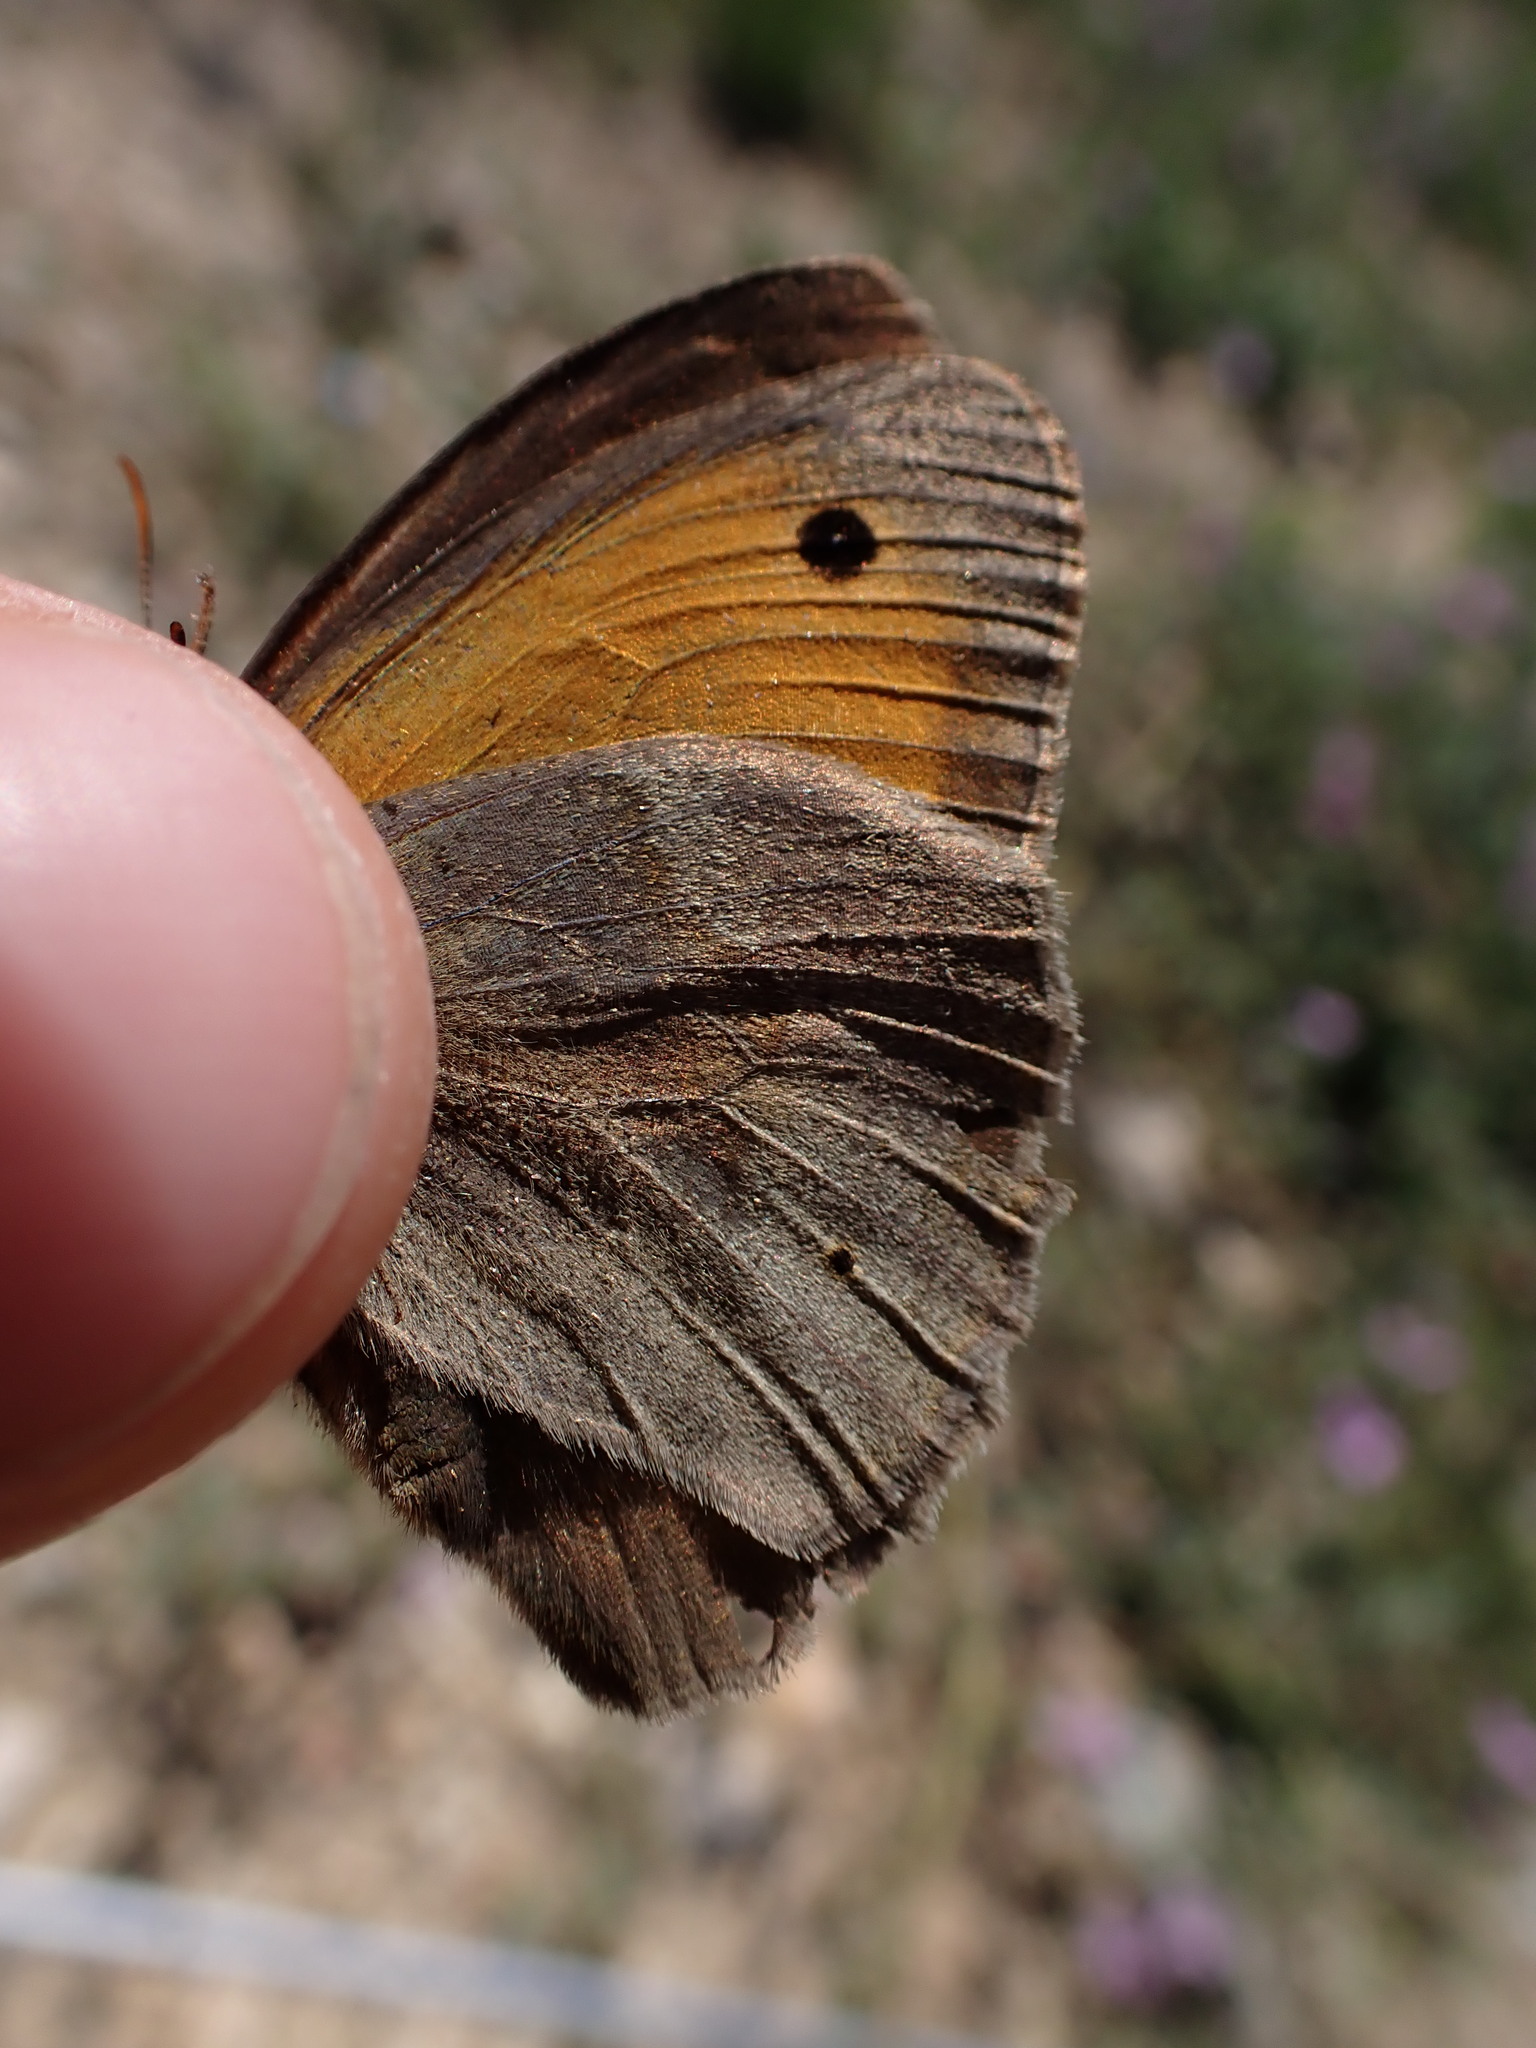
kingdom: Animalia
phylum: Arthropoda
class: Insecta
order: Lepidoptera
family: Nymphalidae
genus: Maniola
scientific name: Maniola jurtina
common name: Meadow brown
